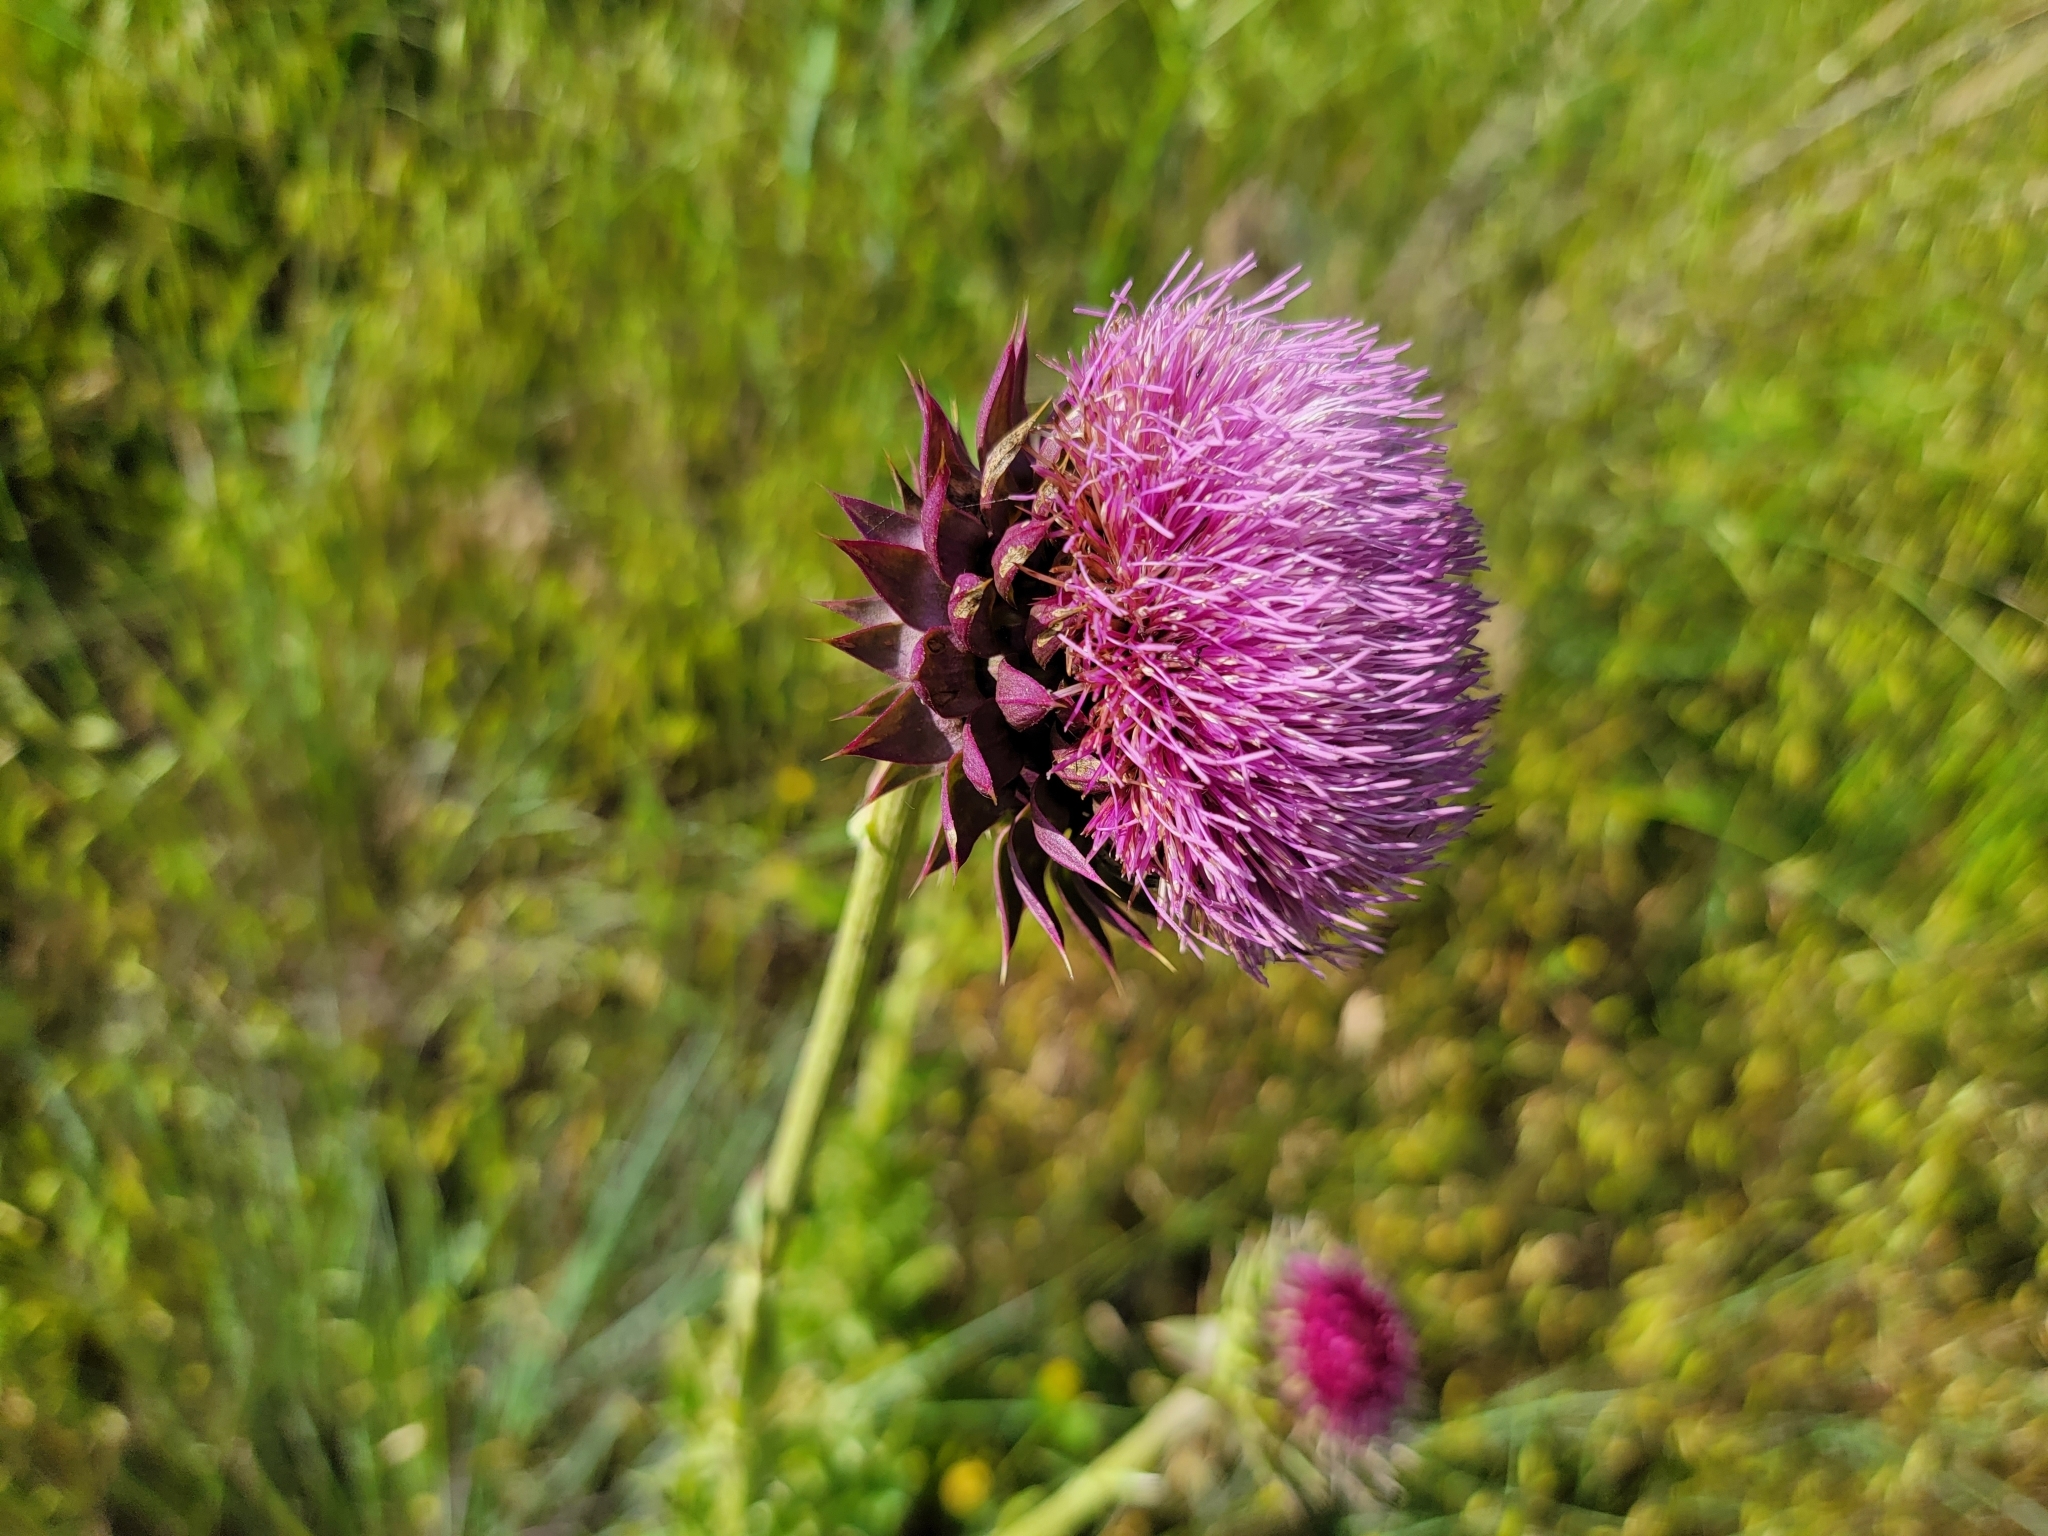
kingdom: Plantae
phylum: Tracheophyta
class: Magnoliopsida
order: Asterales
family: Asteraceae
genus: Carduus
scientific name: Carduus nutans
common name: Musk thistle
